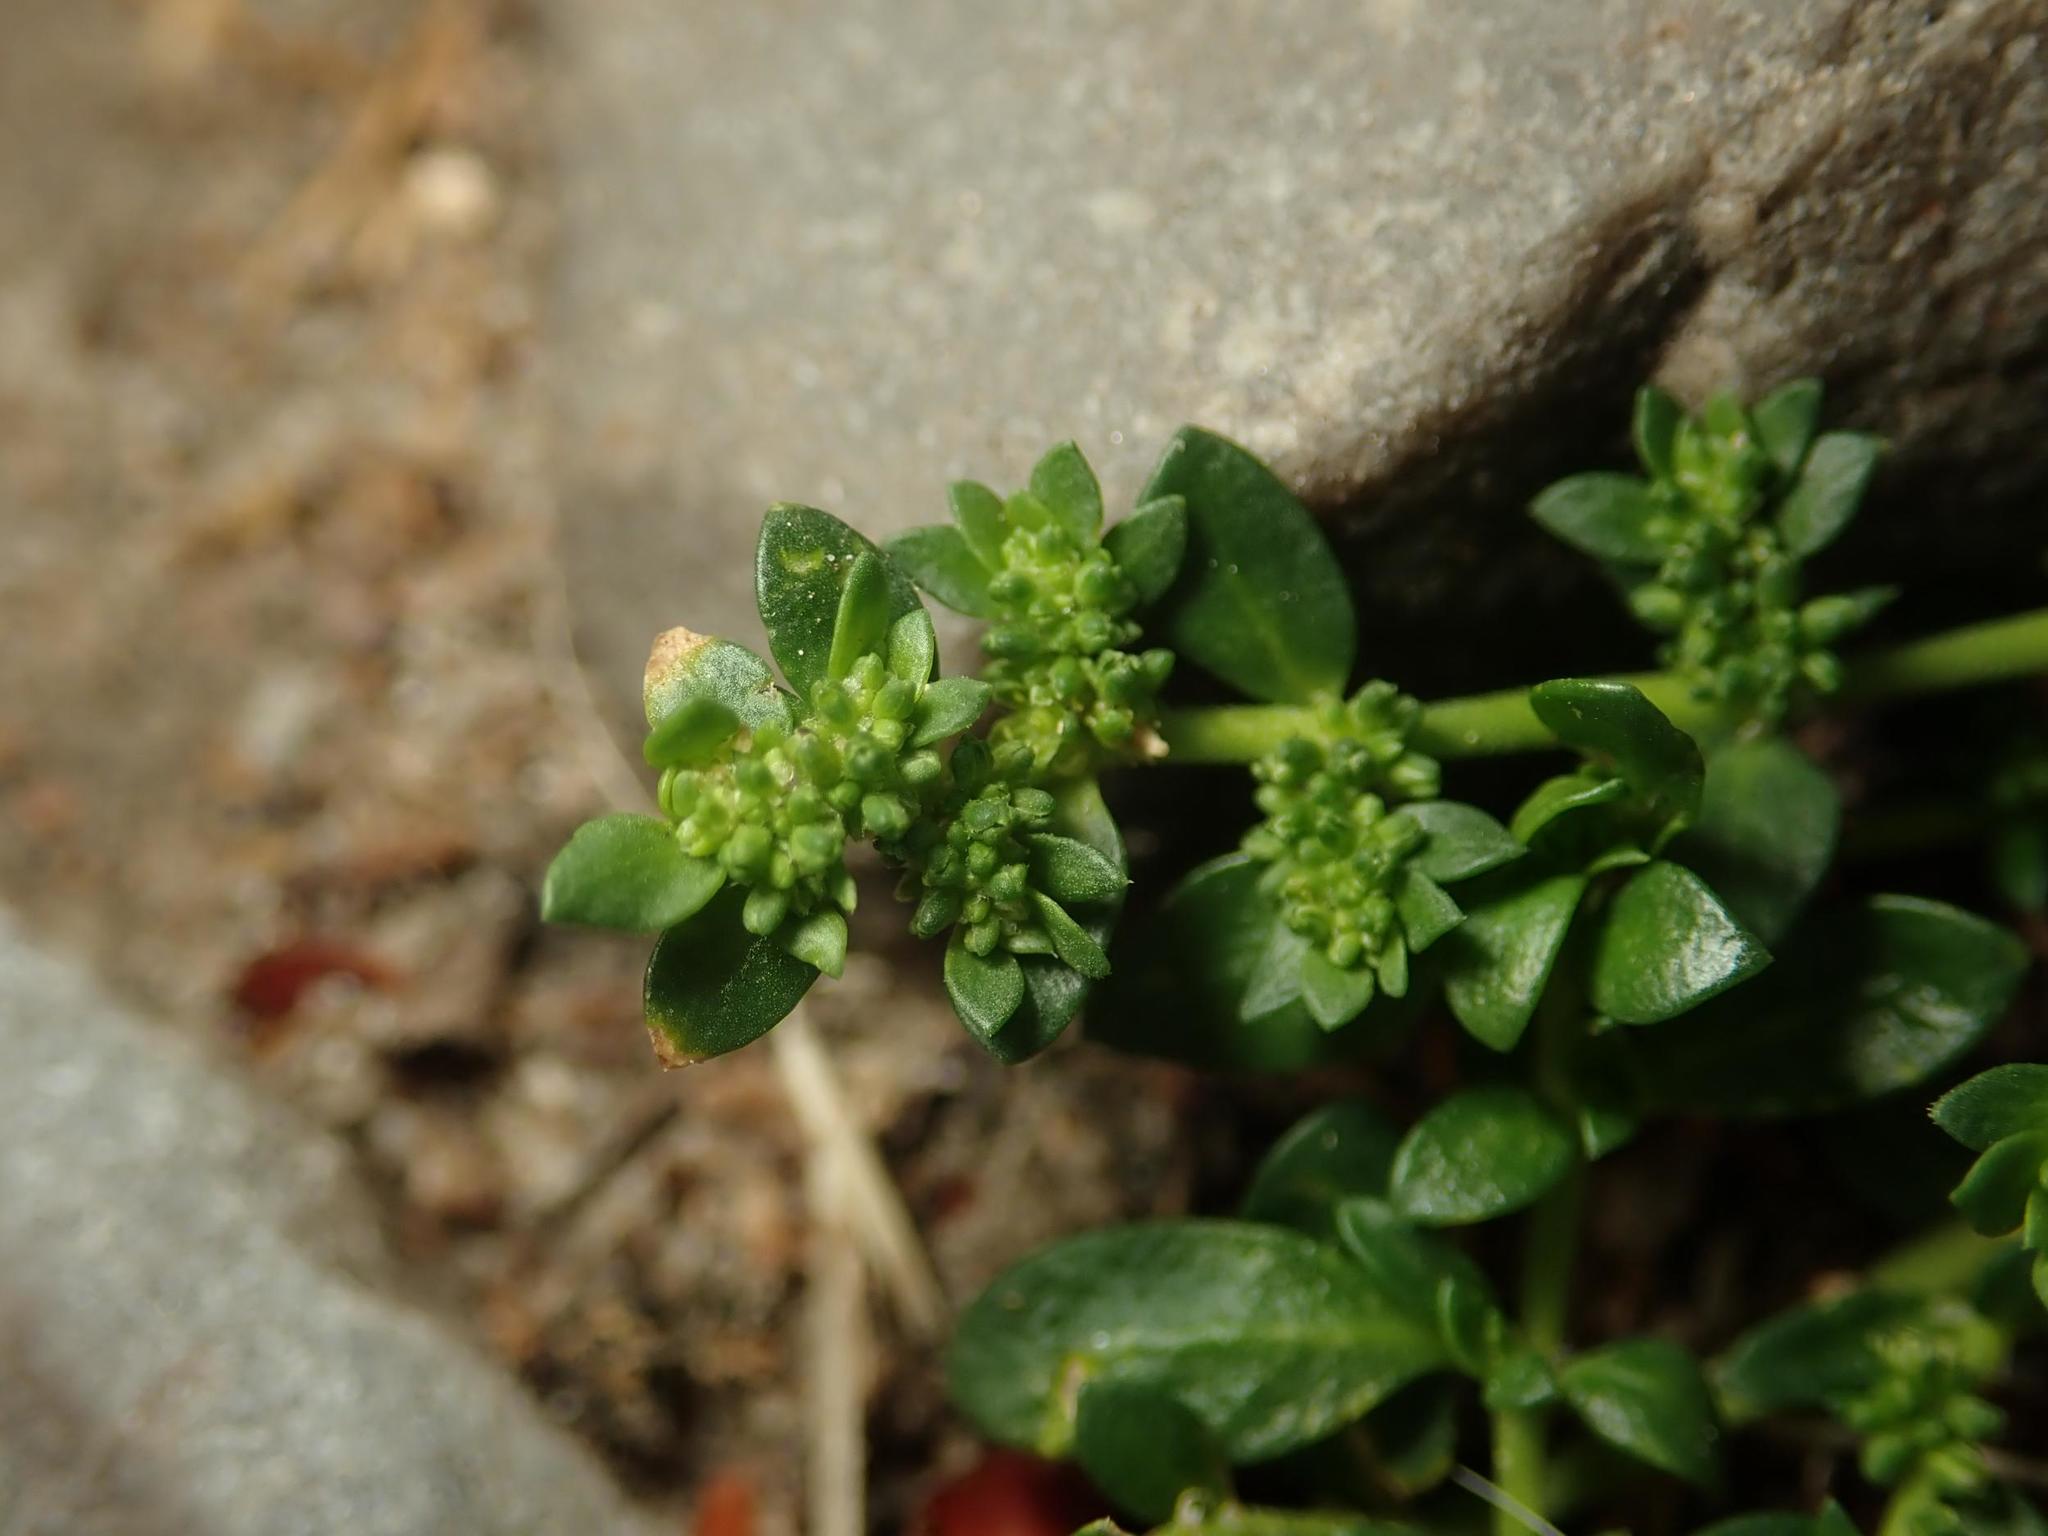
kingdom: Plantae
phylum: Tracheophyta
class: Magnoliopsida
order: Caryophyllales
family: Caryophyllaceae
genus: Herniaria
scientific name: Herniaria glabra
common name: Smooth rupturewort
